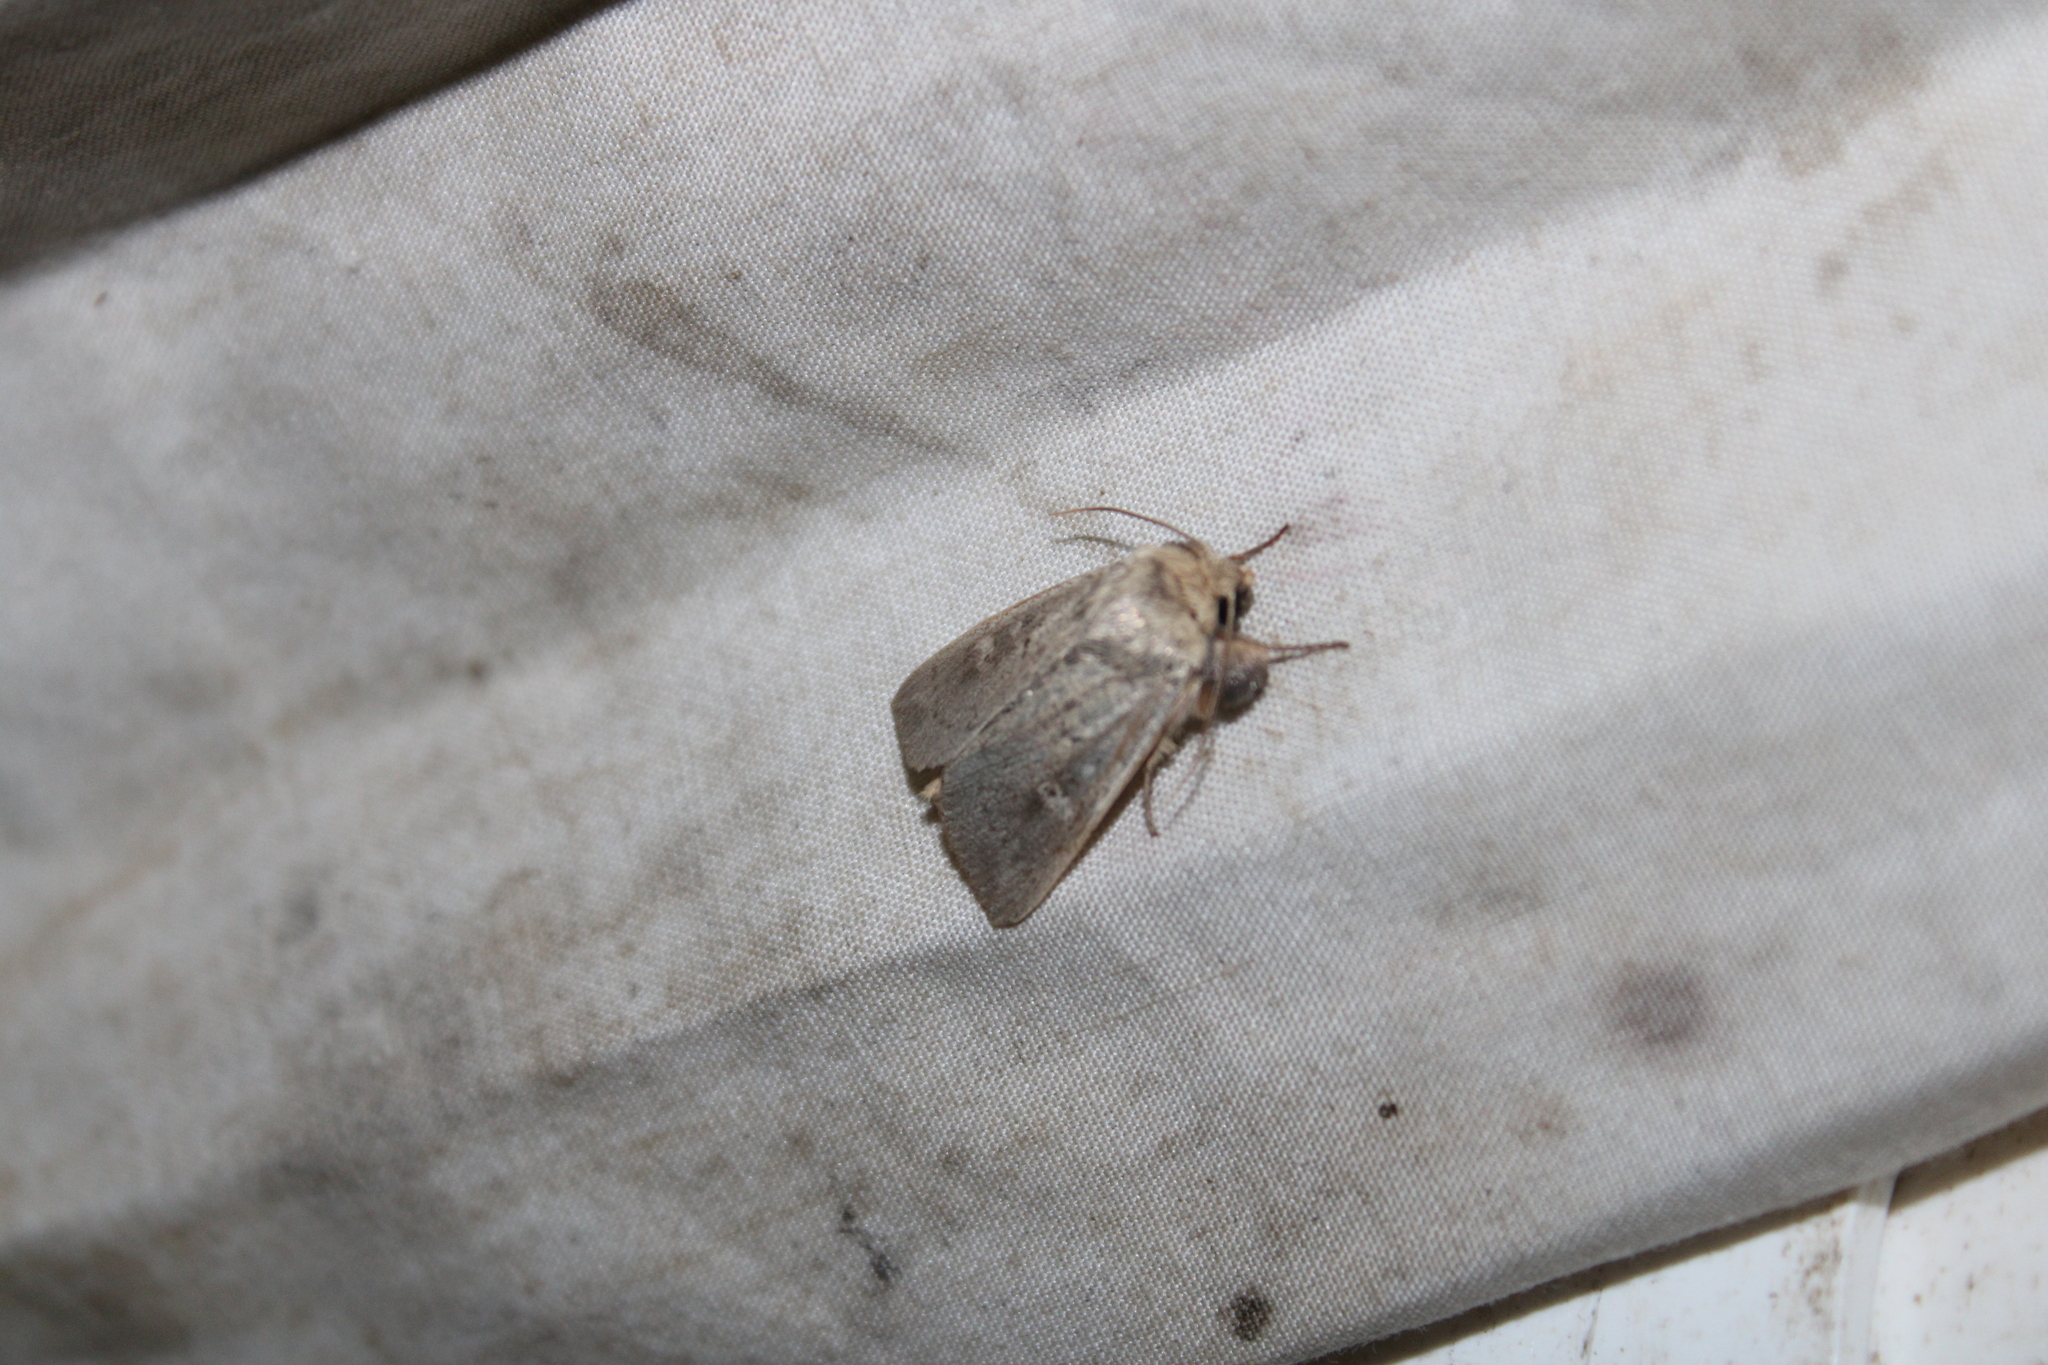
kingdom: Animalia
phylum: Arthropoda
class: Insecta
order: Lepidoptera
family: Noctuidae
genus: Leucania
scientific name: Leucania ursula
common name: Ursula wainscot
